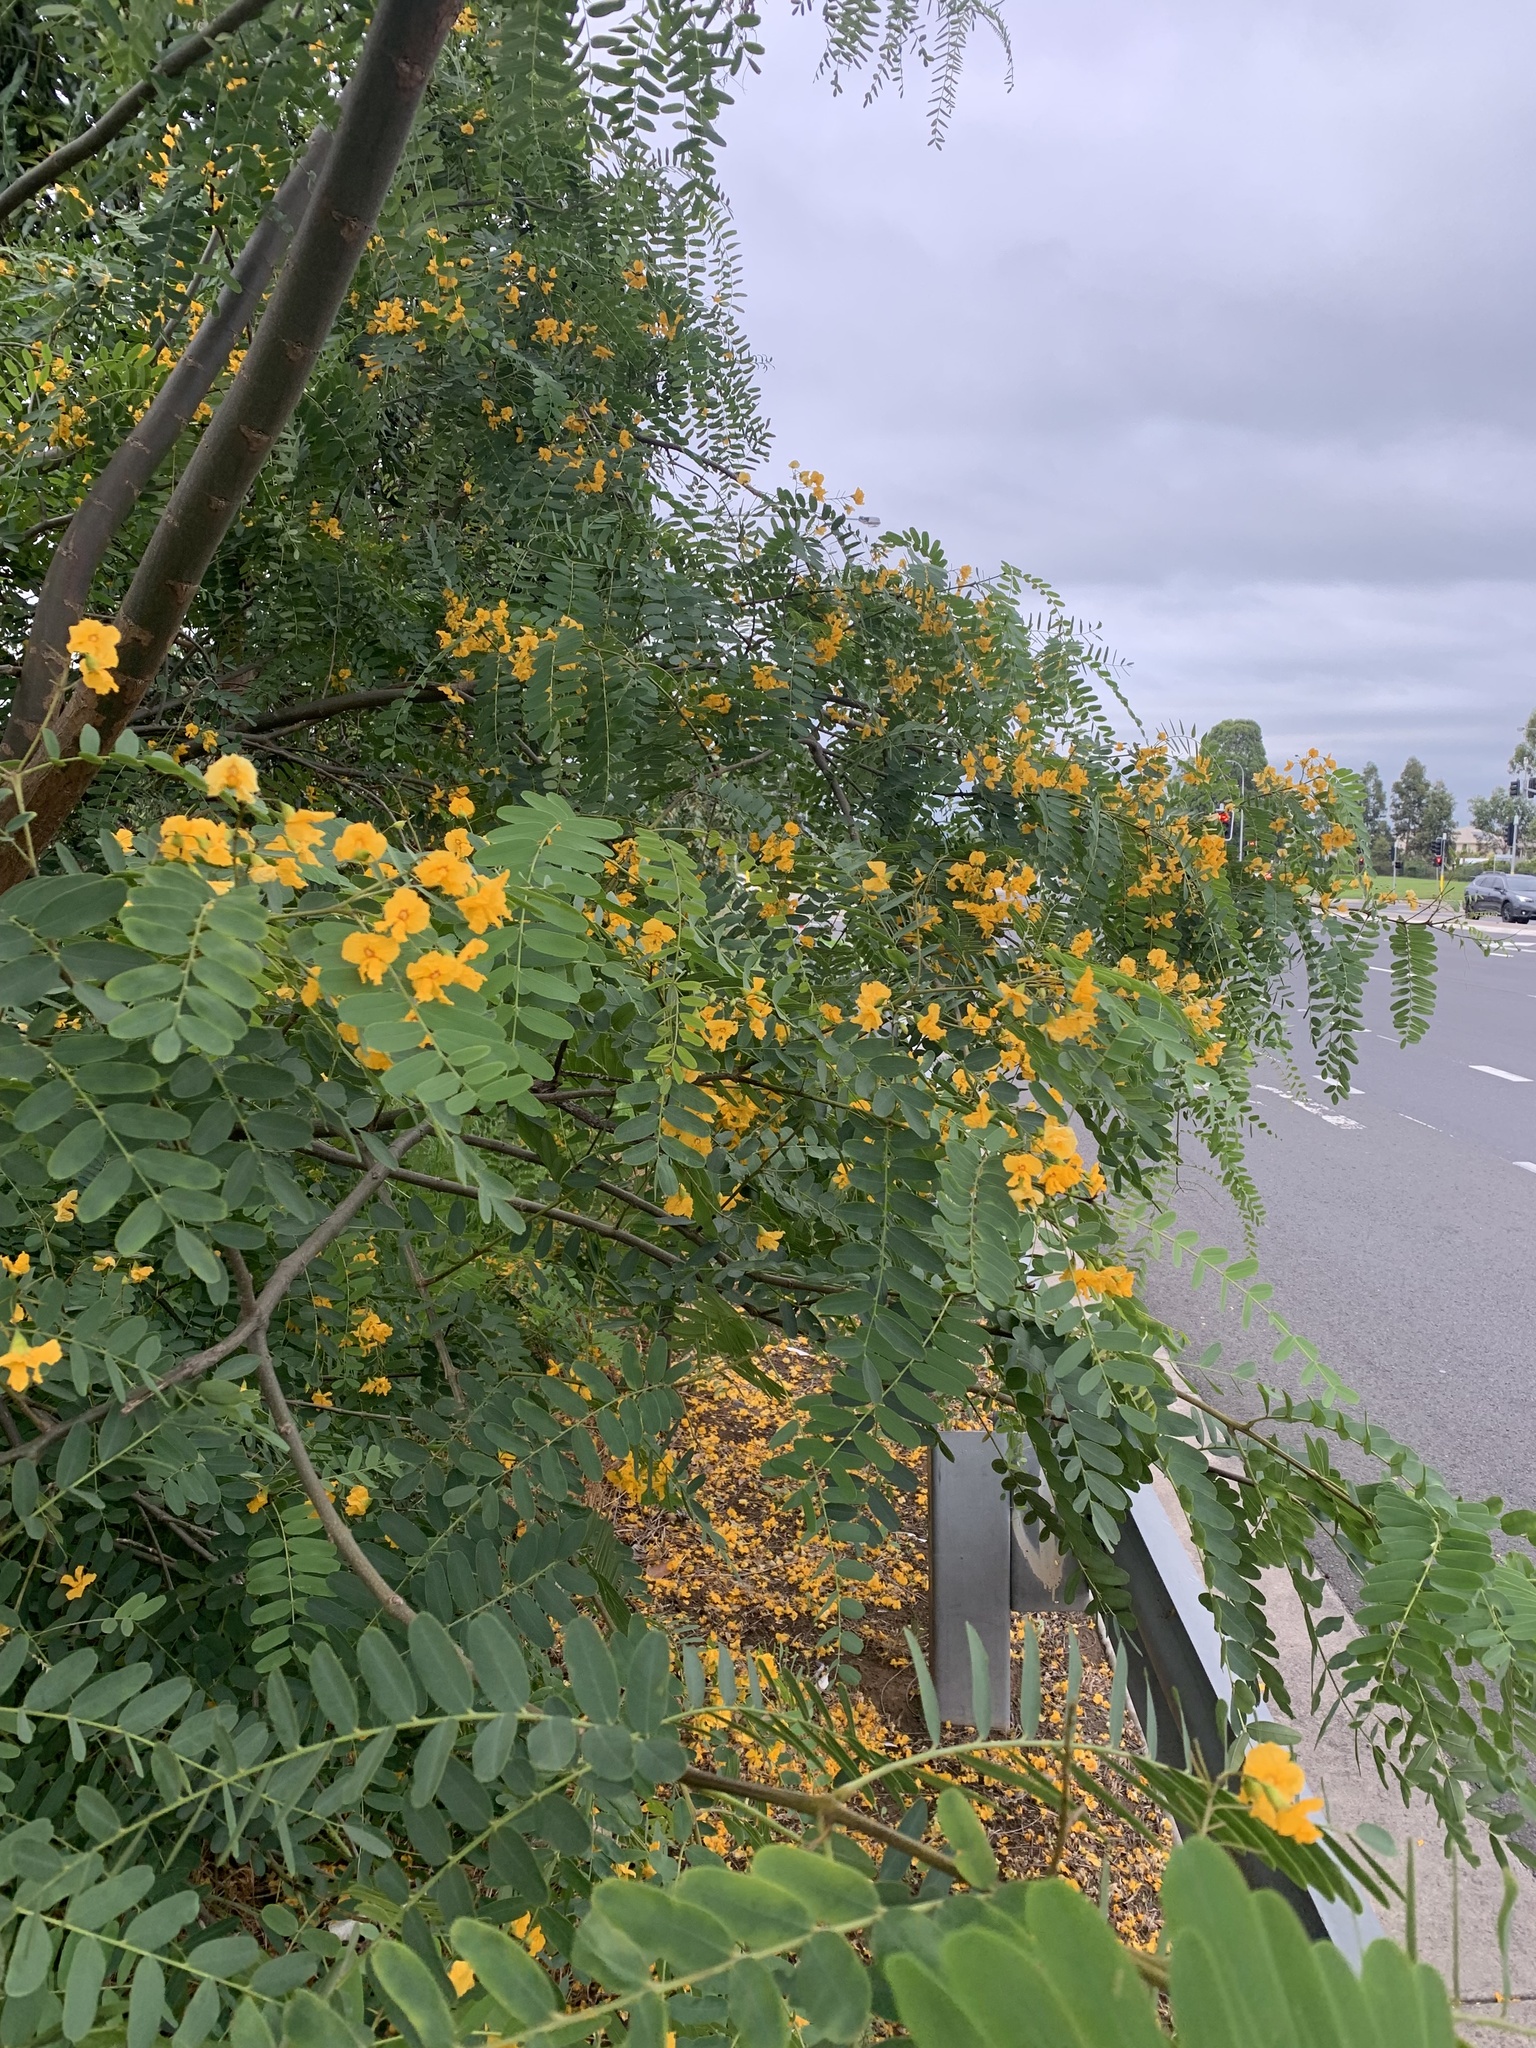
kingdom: Plantae
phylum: Tracheophyta
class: Magnoliopsida
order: Fabales
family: Fabaceae
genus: Tipuana
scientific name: Tipuana tipu
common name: Tiputree
